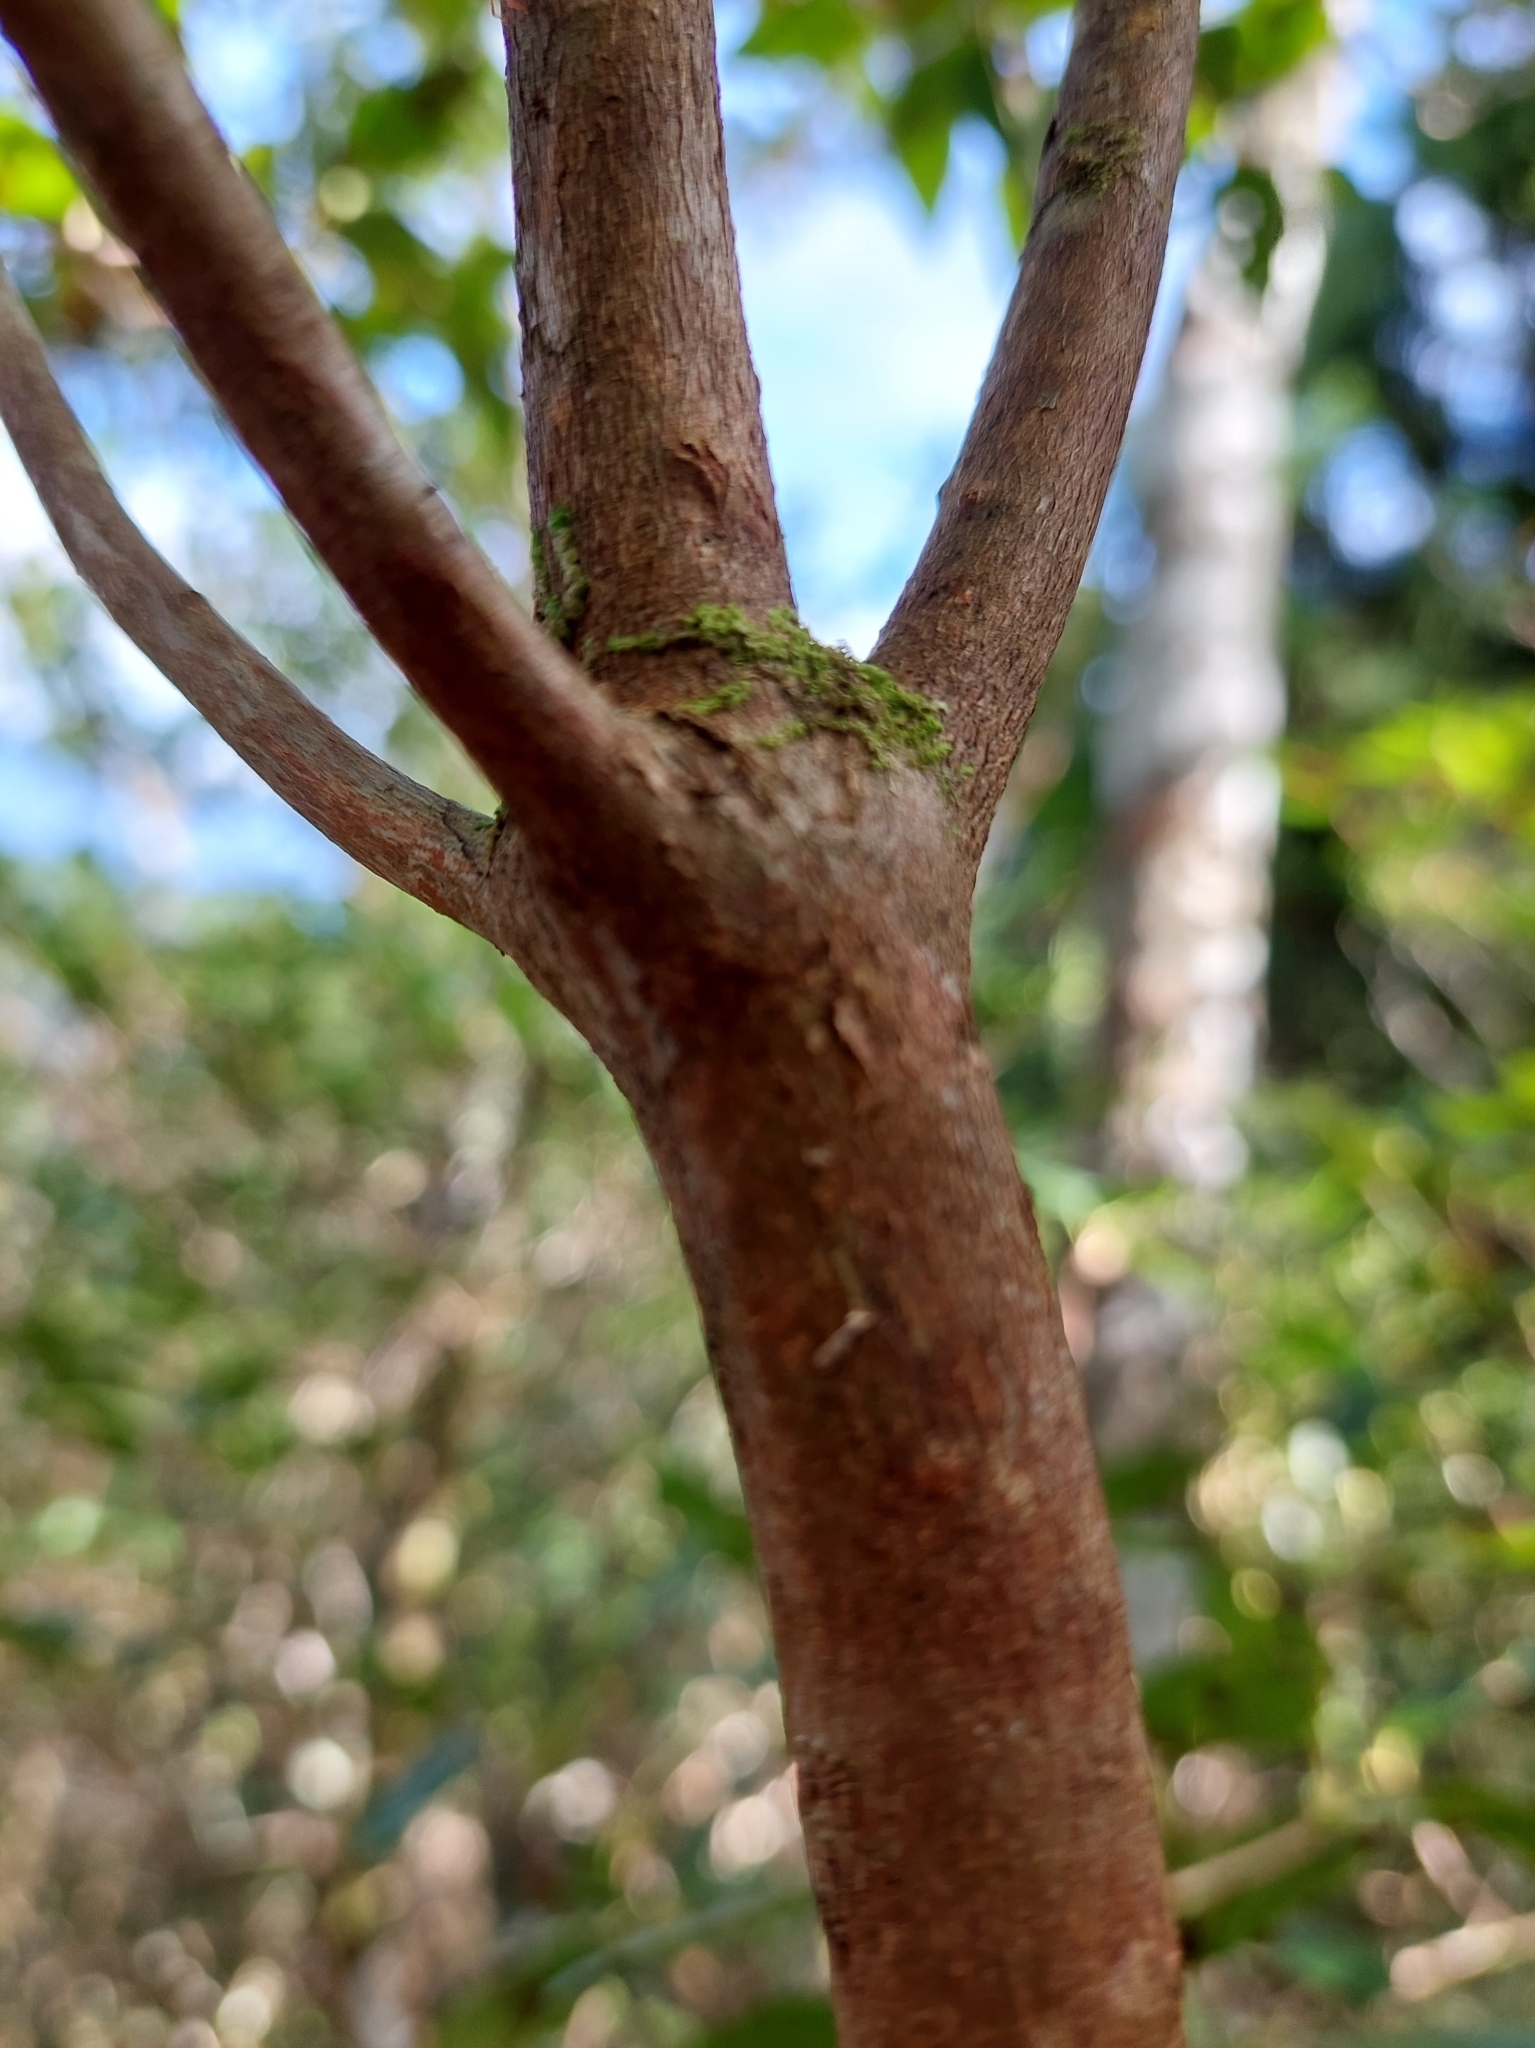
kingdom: Plantae
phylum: Tracheophyta
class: Magnoliopsida
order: Ericales
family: Ericaceae
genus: Rhododendron
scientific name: Rhododendron mariesii
